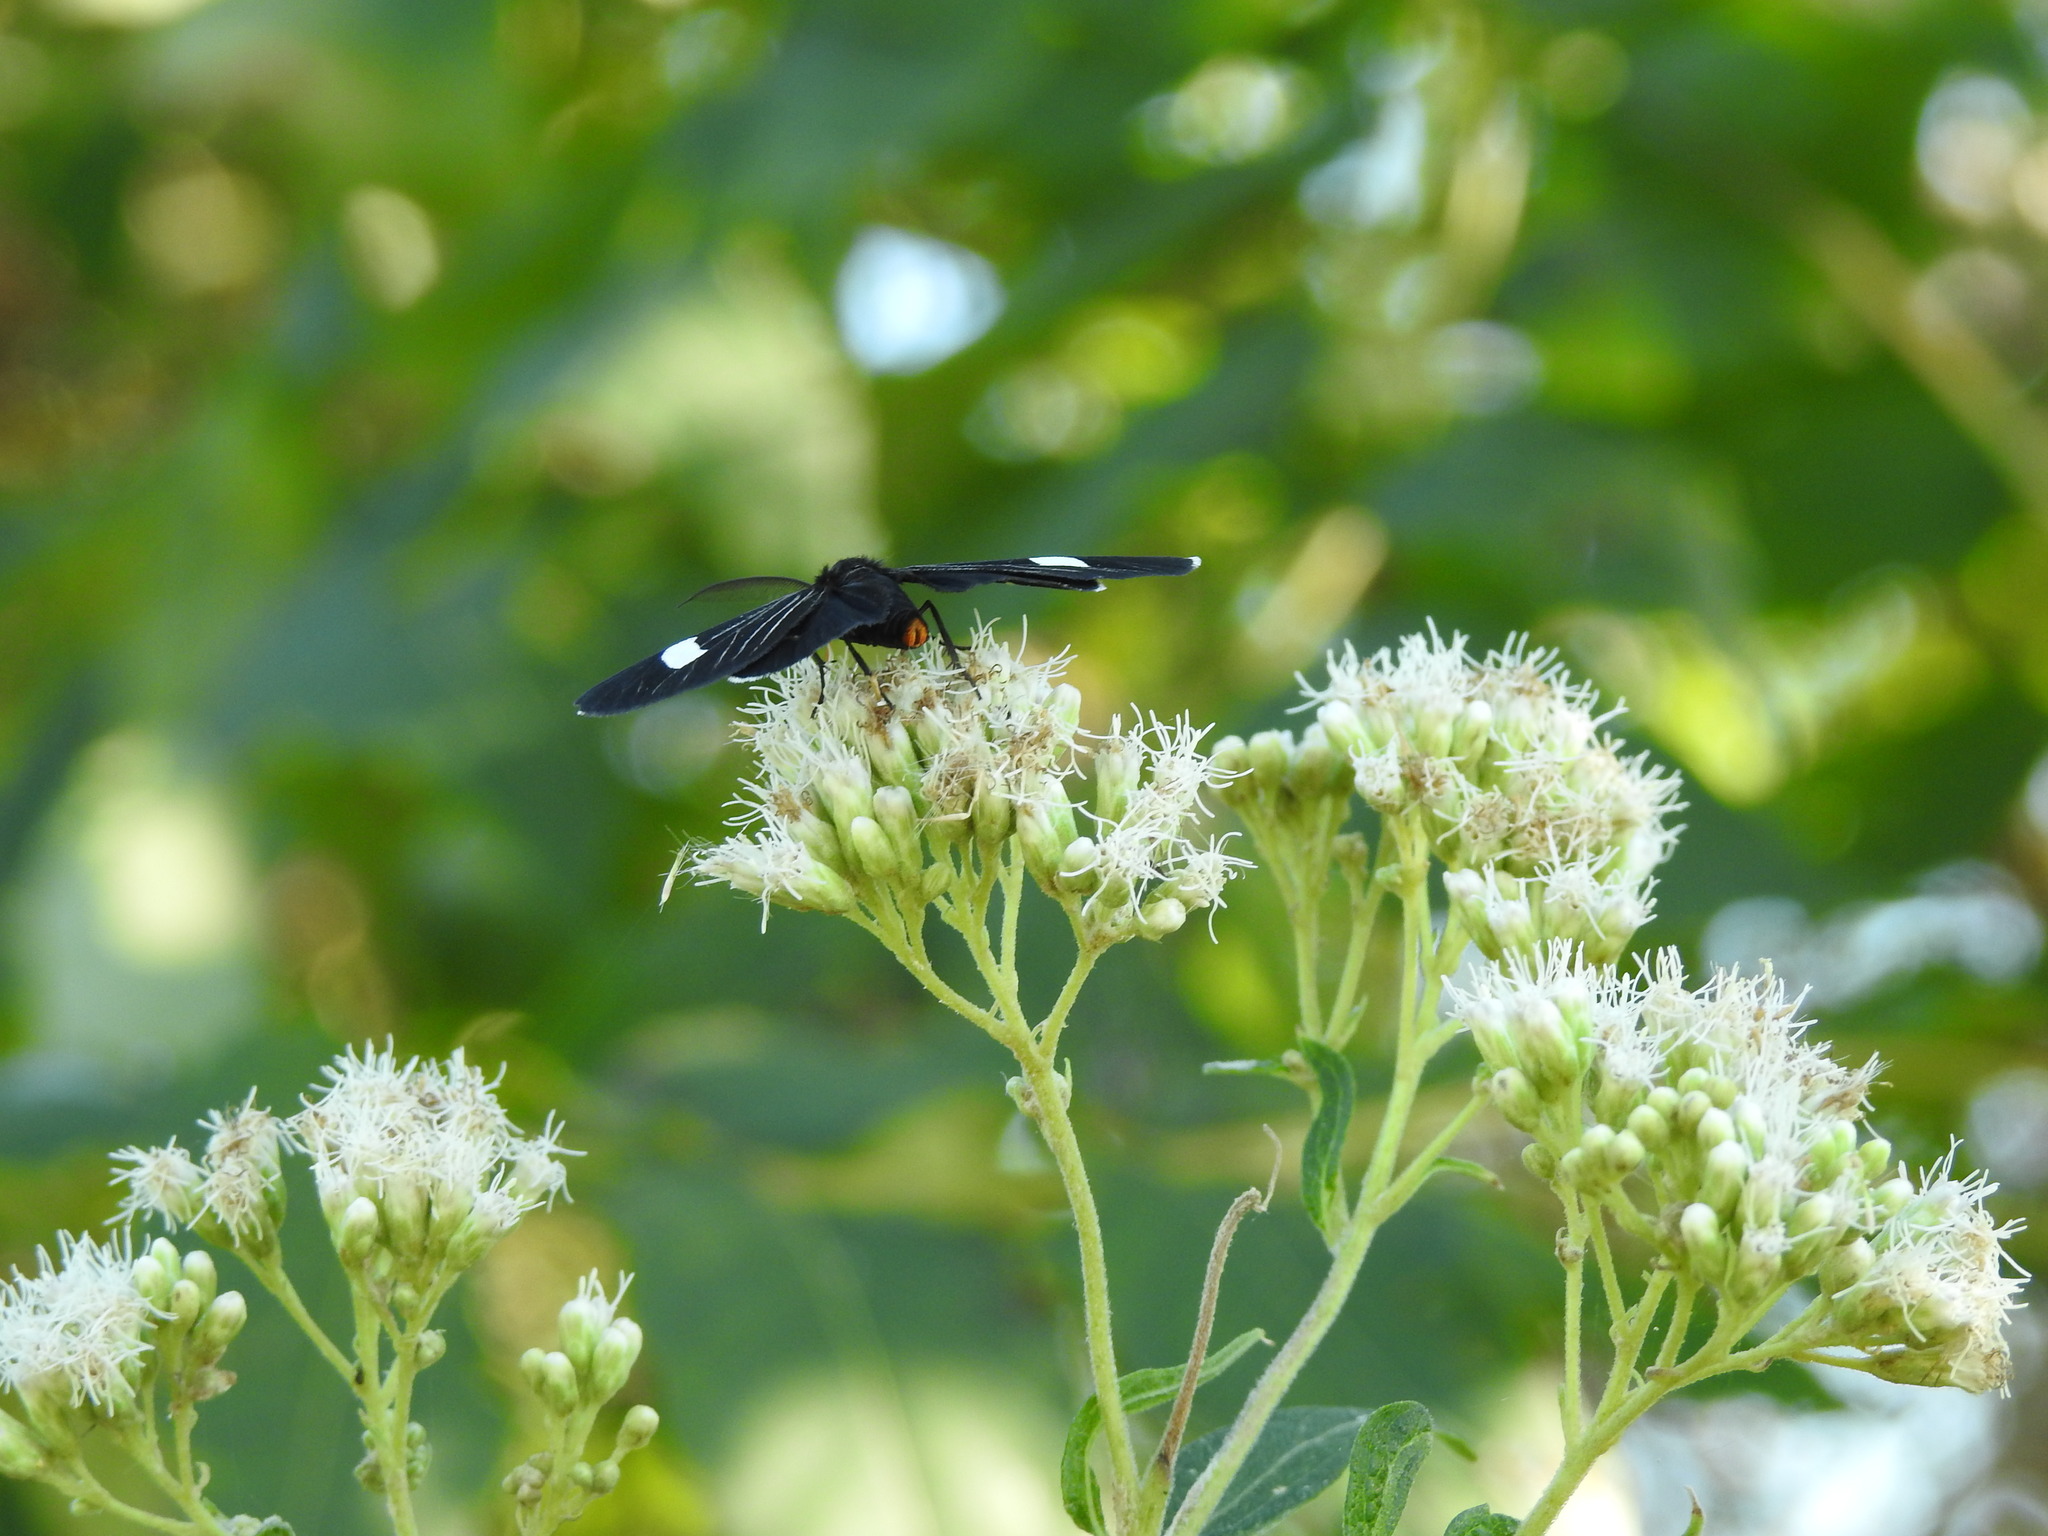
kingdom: Animalia
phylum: Arthropoda
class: Insecta
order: Lepidoptera
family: Geometridae
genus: Melanchroia
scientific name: Melanchroia aterea
